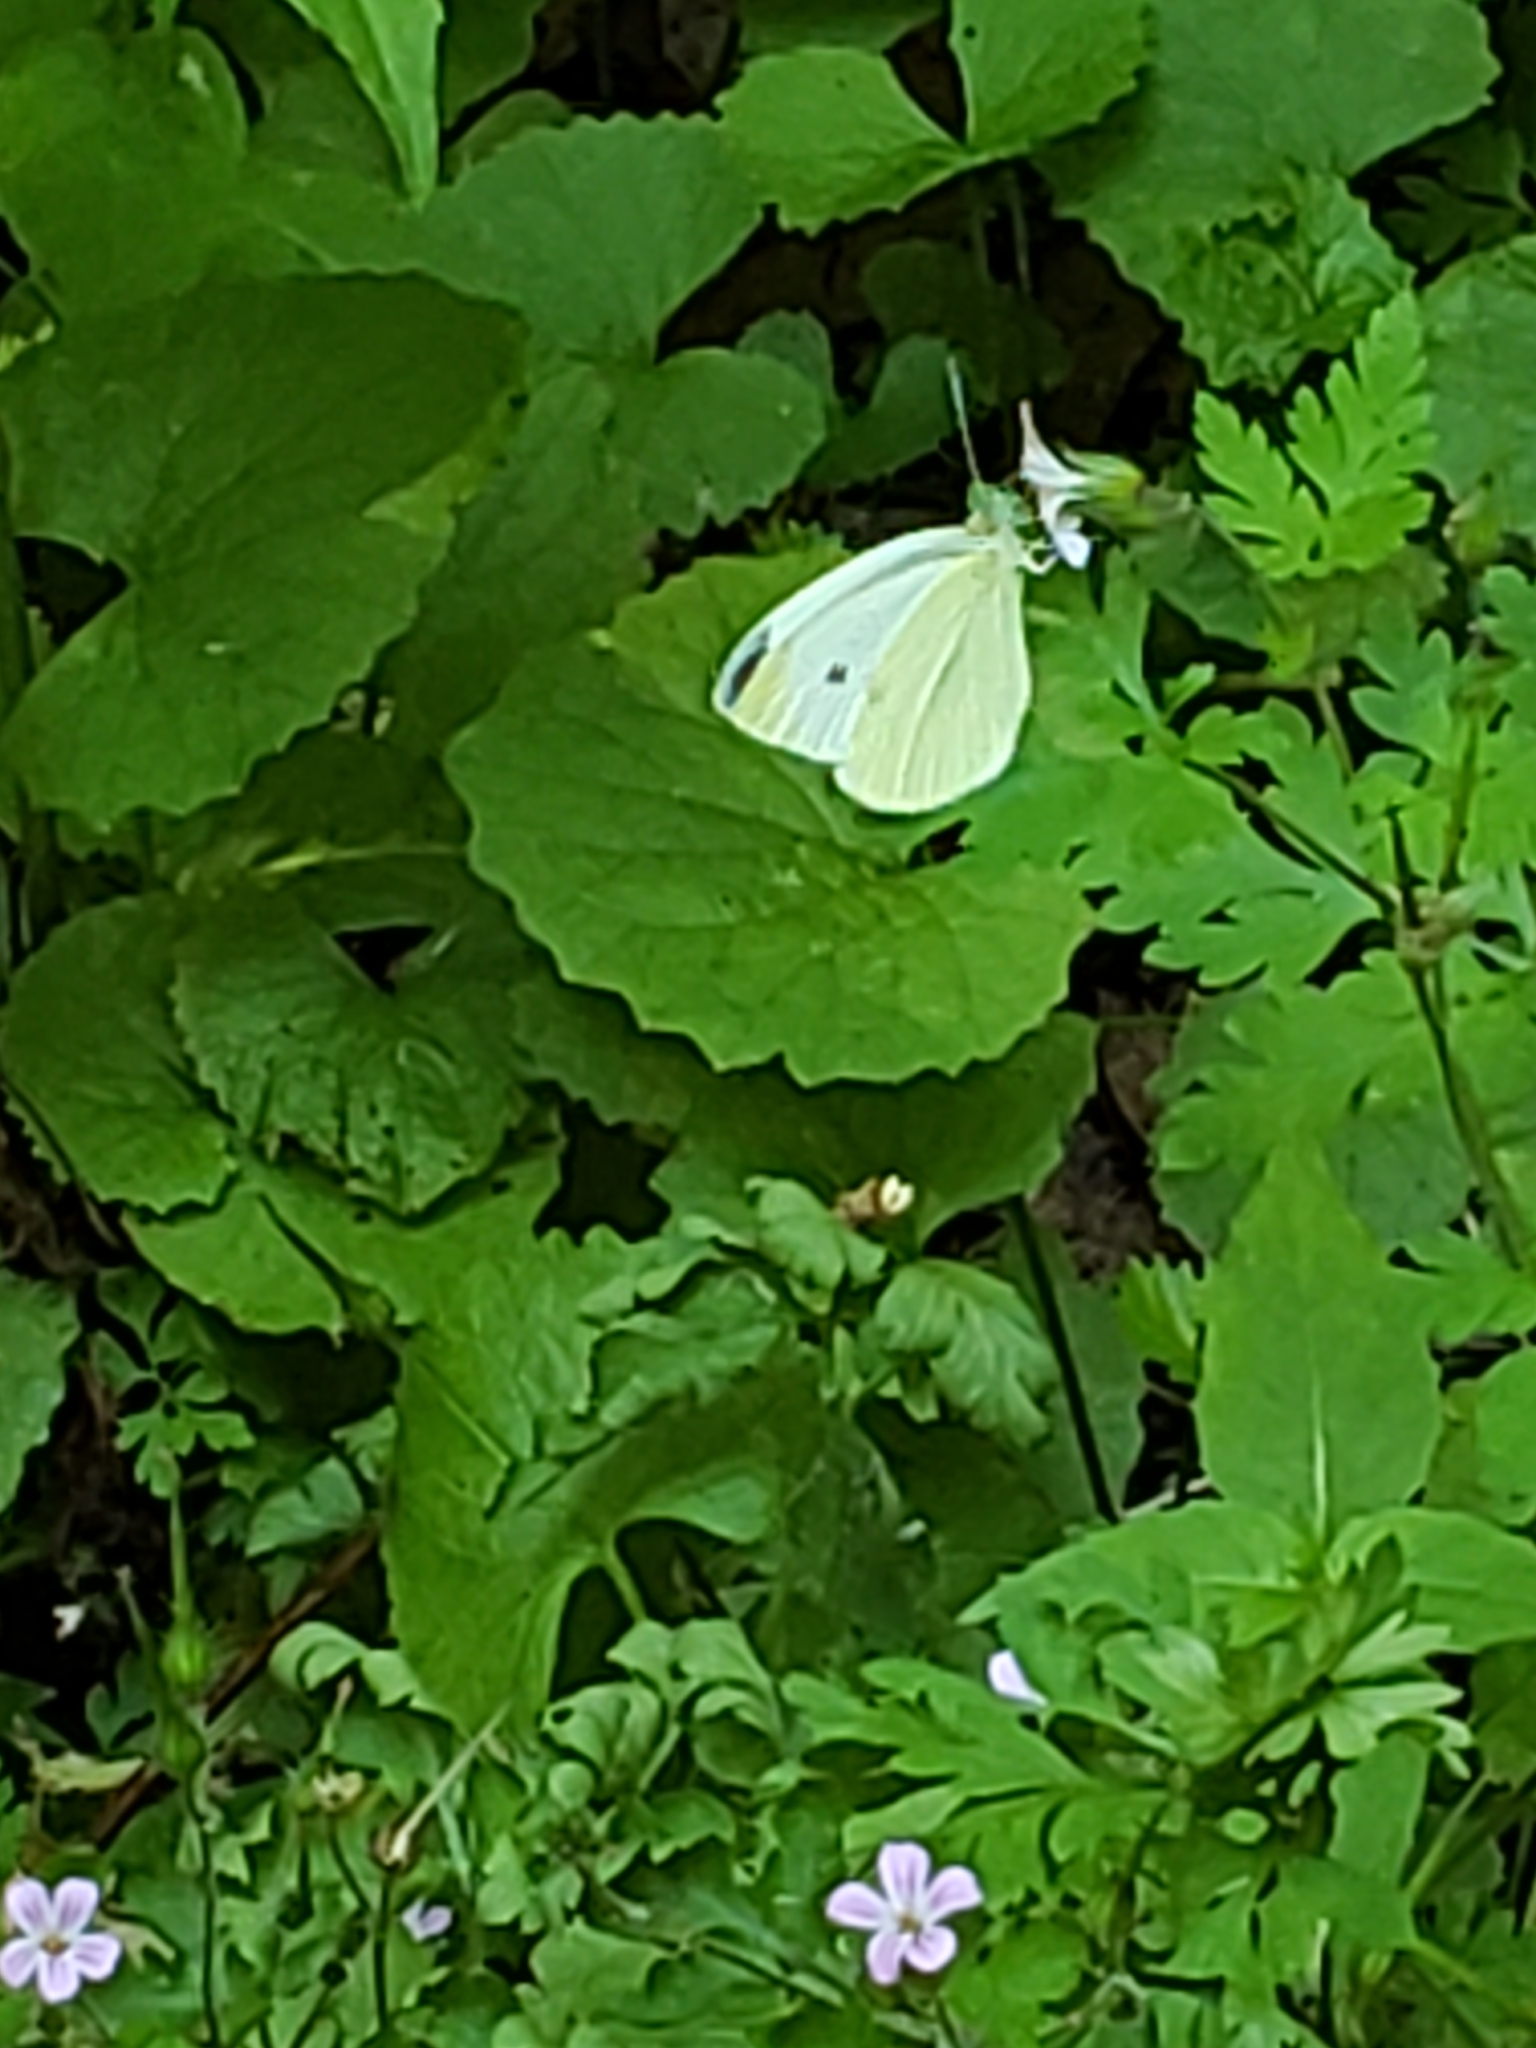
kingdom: Animalia
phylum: Arthropoda
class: Insecta
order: Lepidoptera
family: Pieridae
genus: Pieris
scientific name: Pieris rapae
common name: Small white
